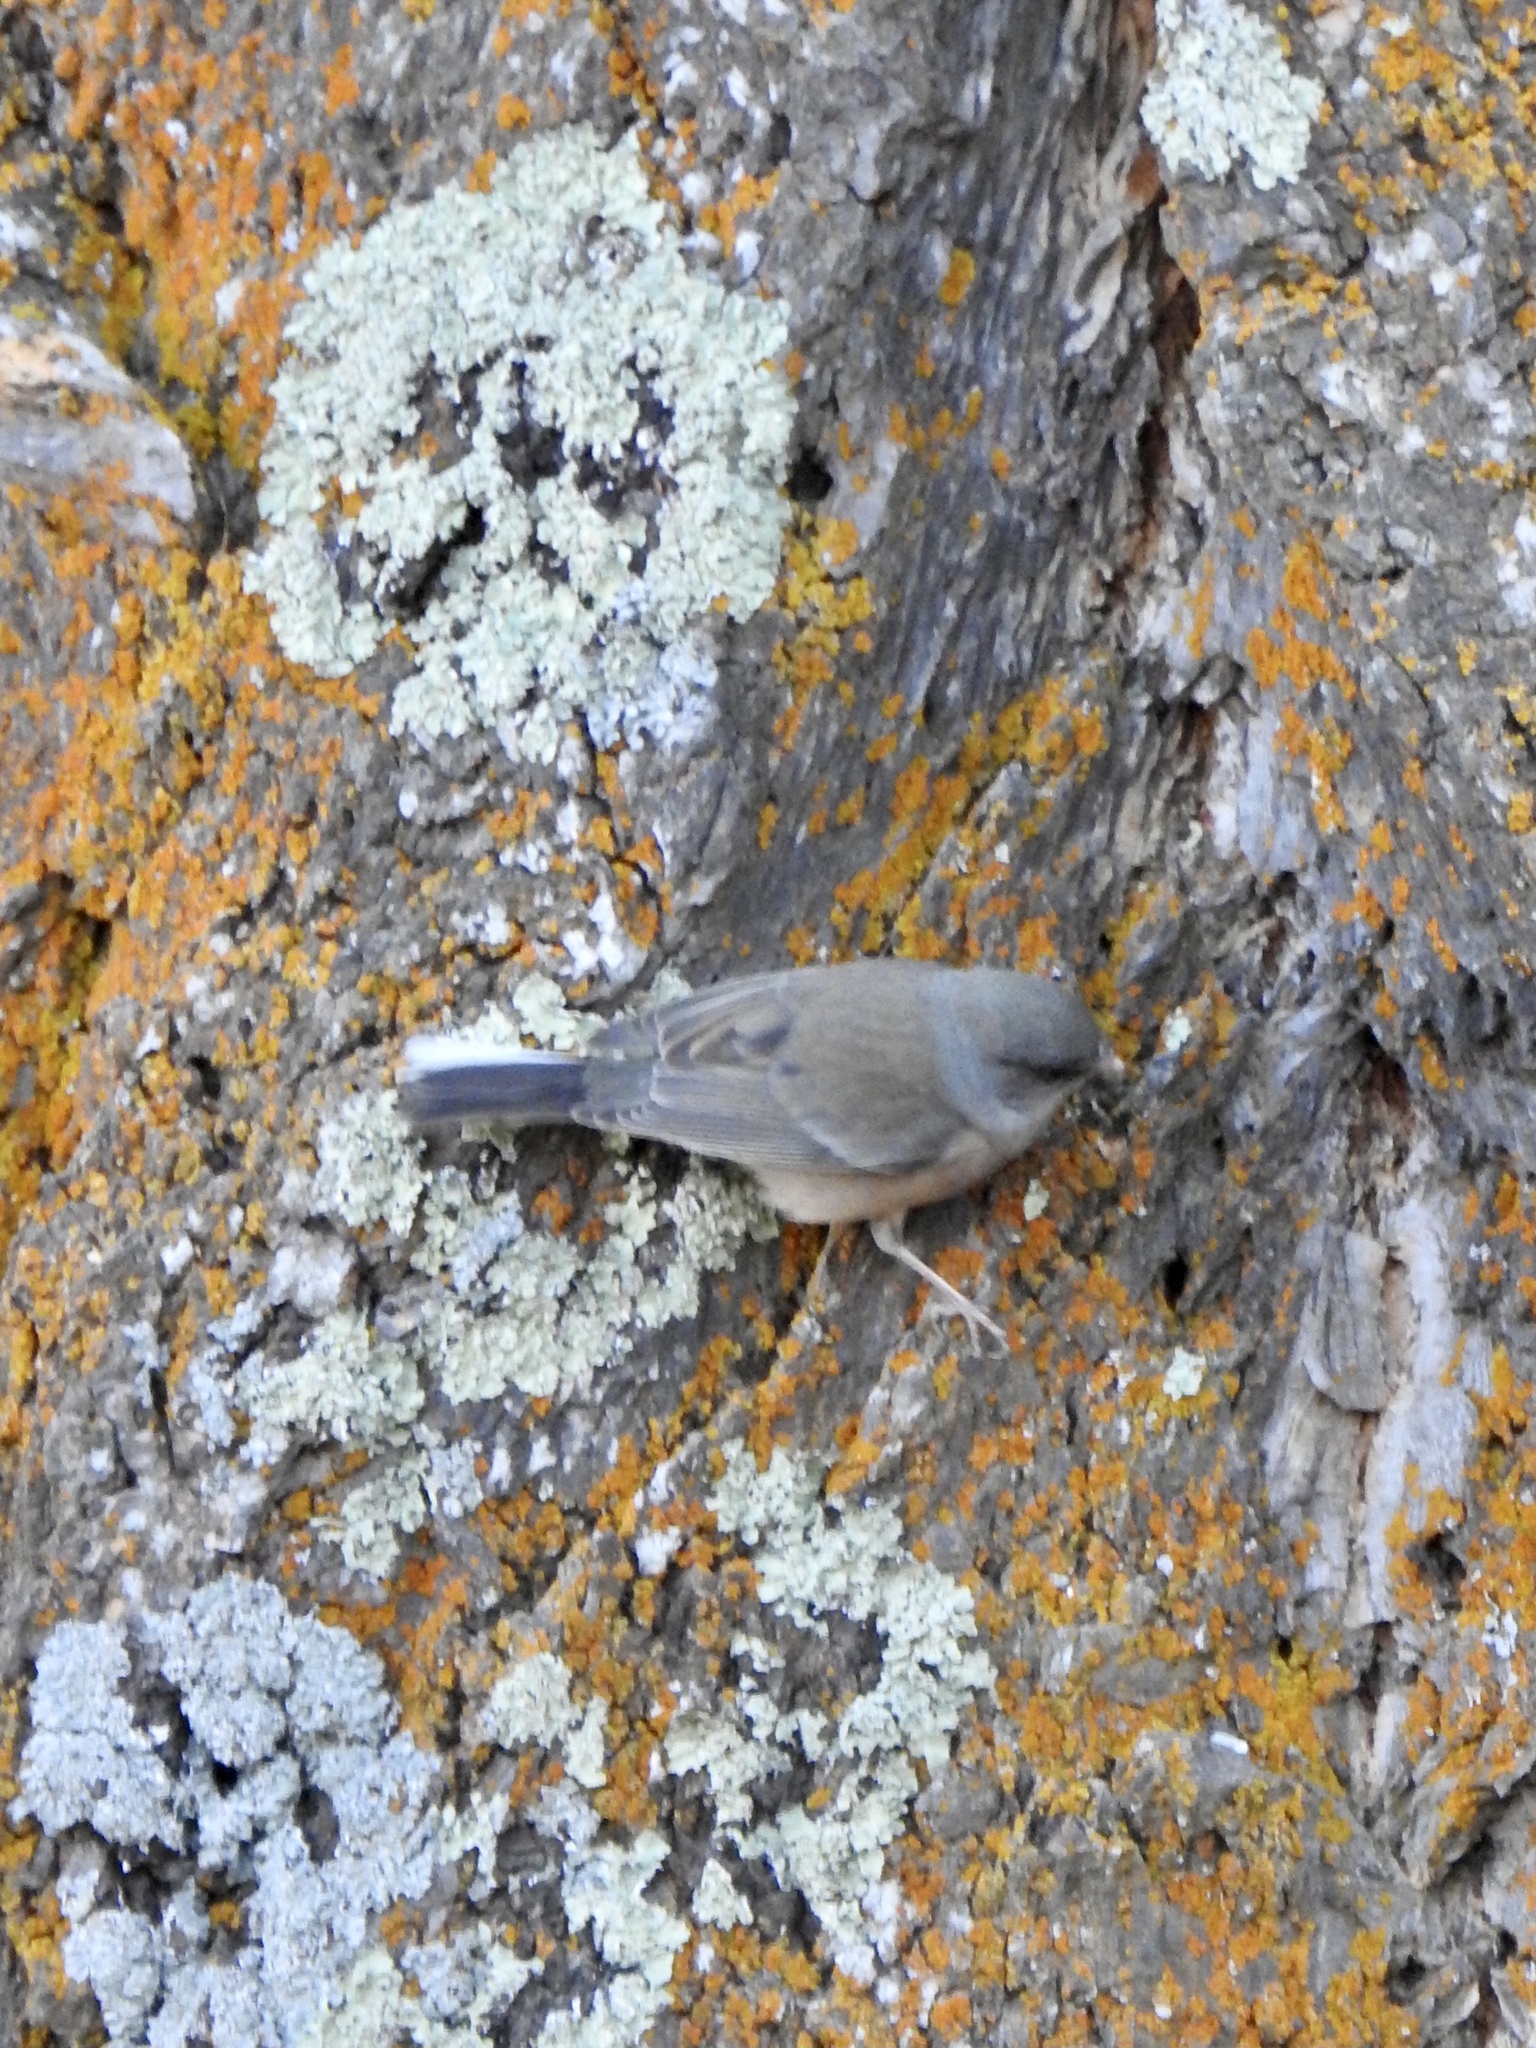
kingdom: Animalia
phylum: Chordata
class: Aves
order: Passeriformes
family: Passerellidae
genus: Junco
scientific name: Junco hyemalis
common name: Dark-eyed junco
